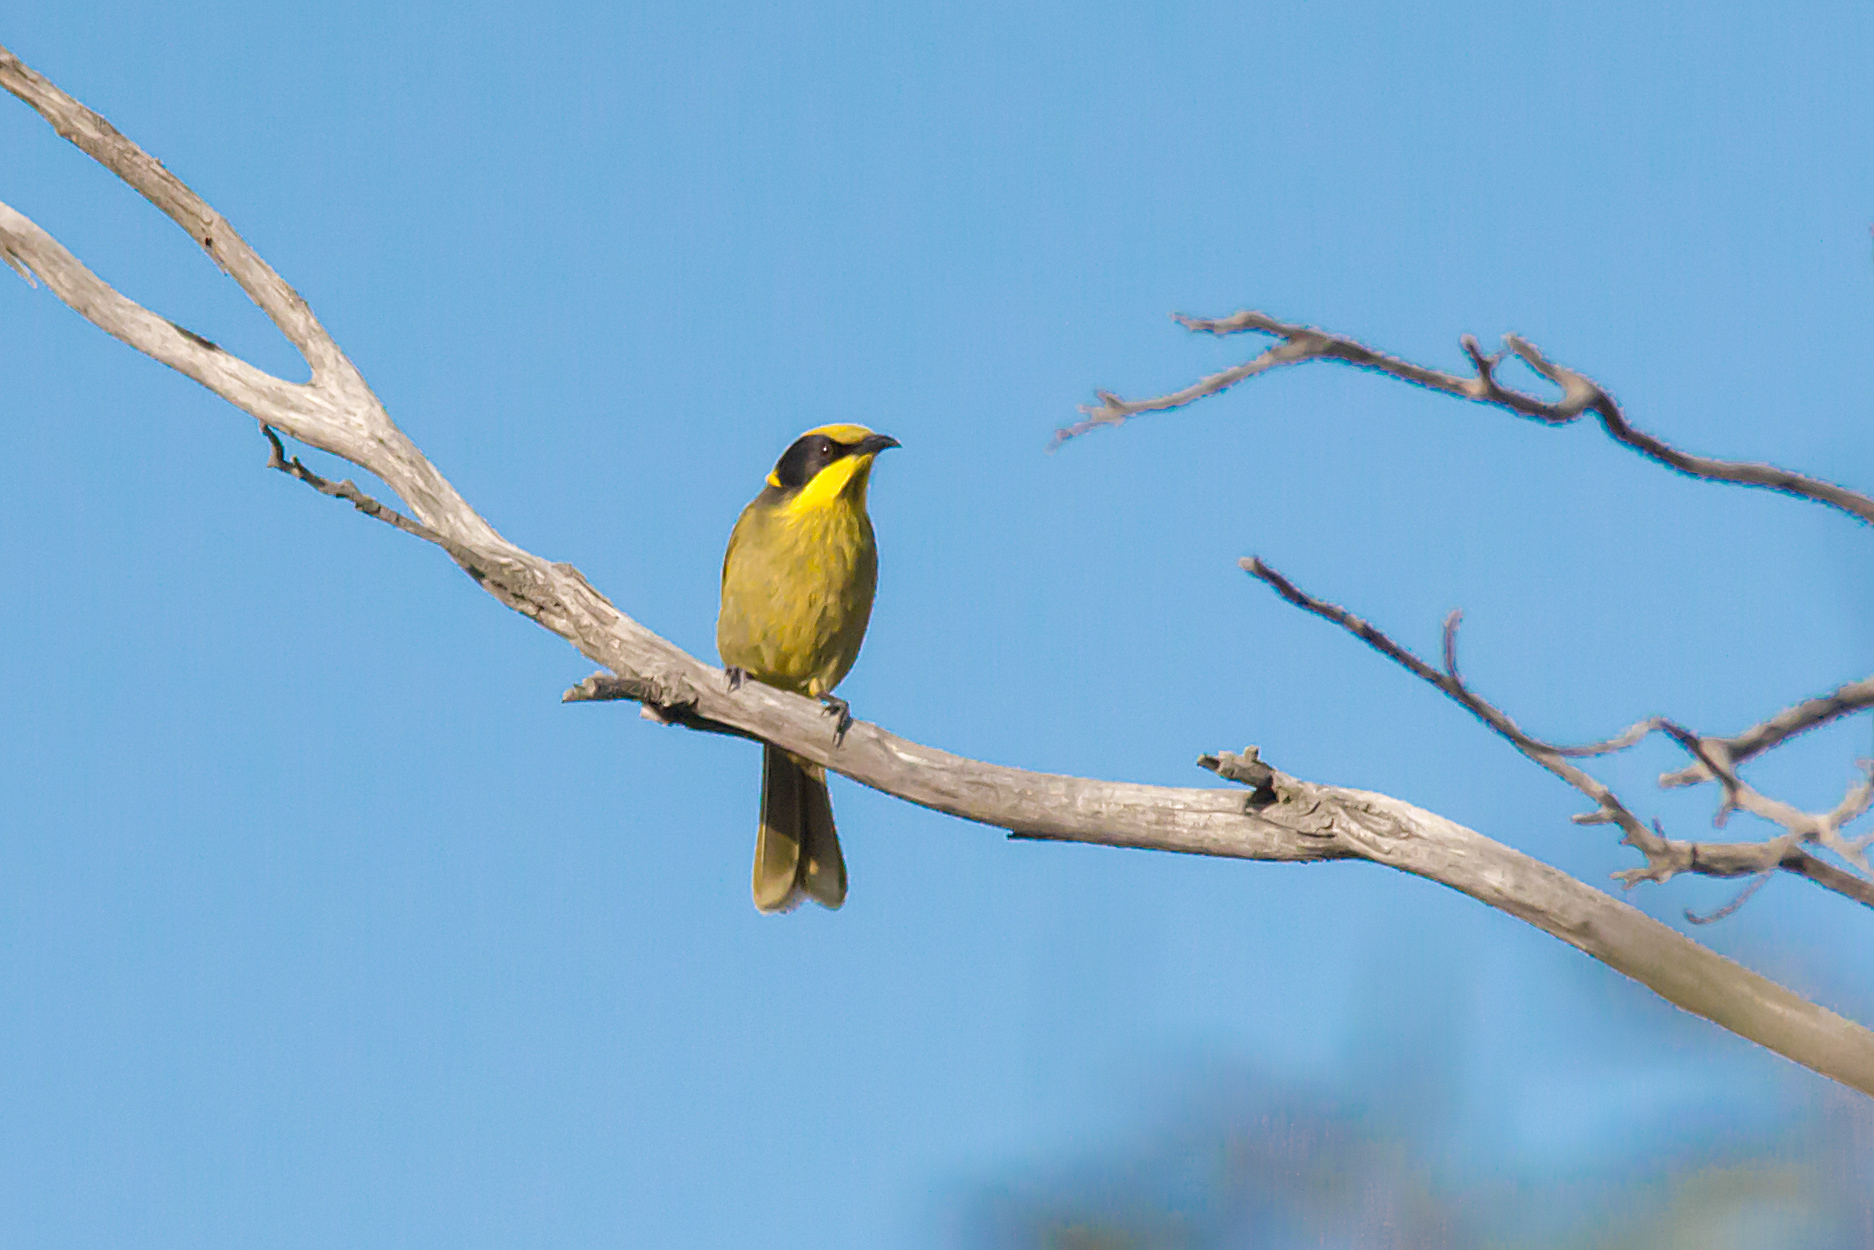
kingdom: Animalia
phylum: Chordata
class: Aves
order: Passeriformes
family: Meliphagidae
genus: Lichenostomus
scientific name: Lichenostomus melanops
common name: Yellow-tufted honeyeater
